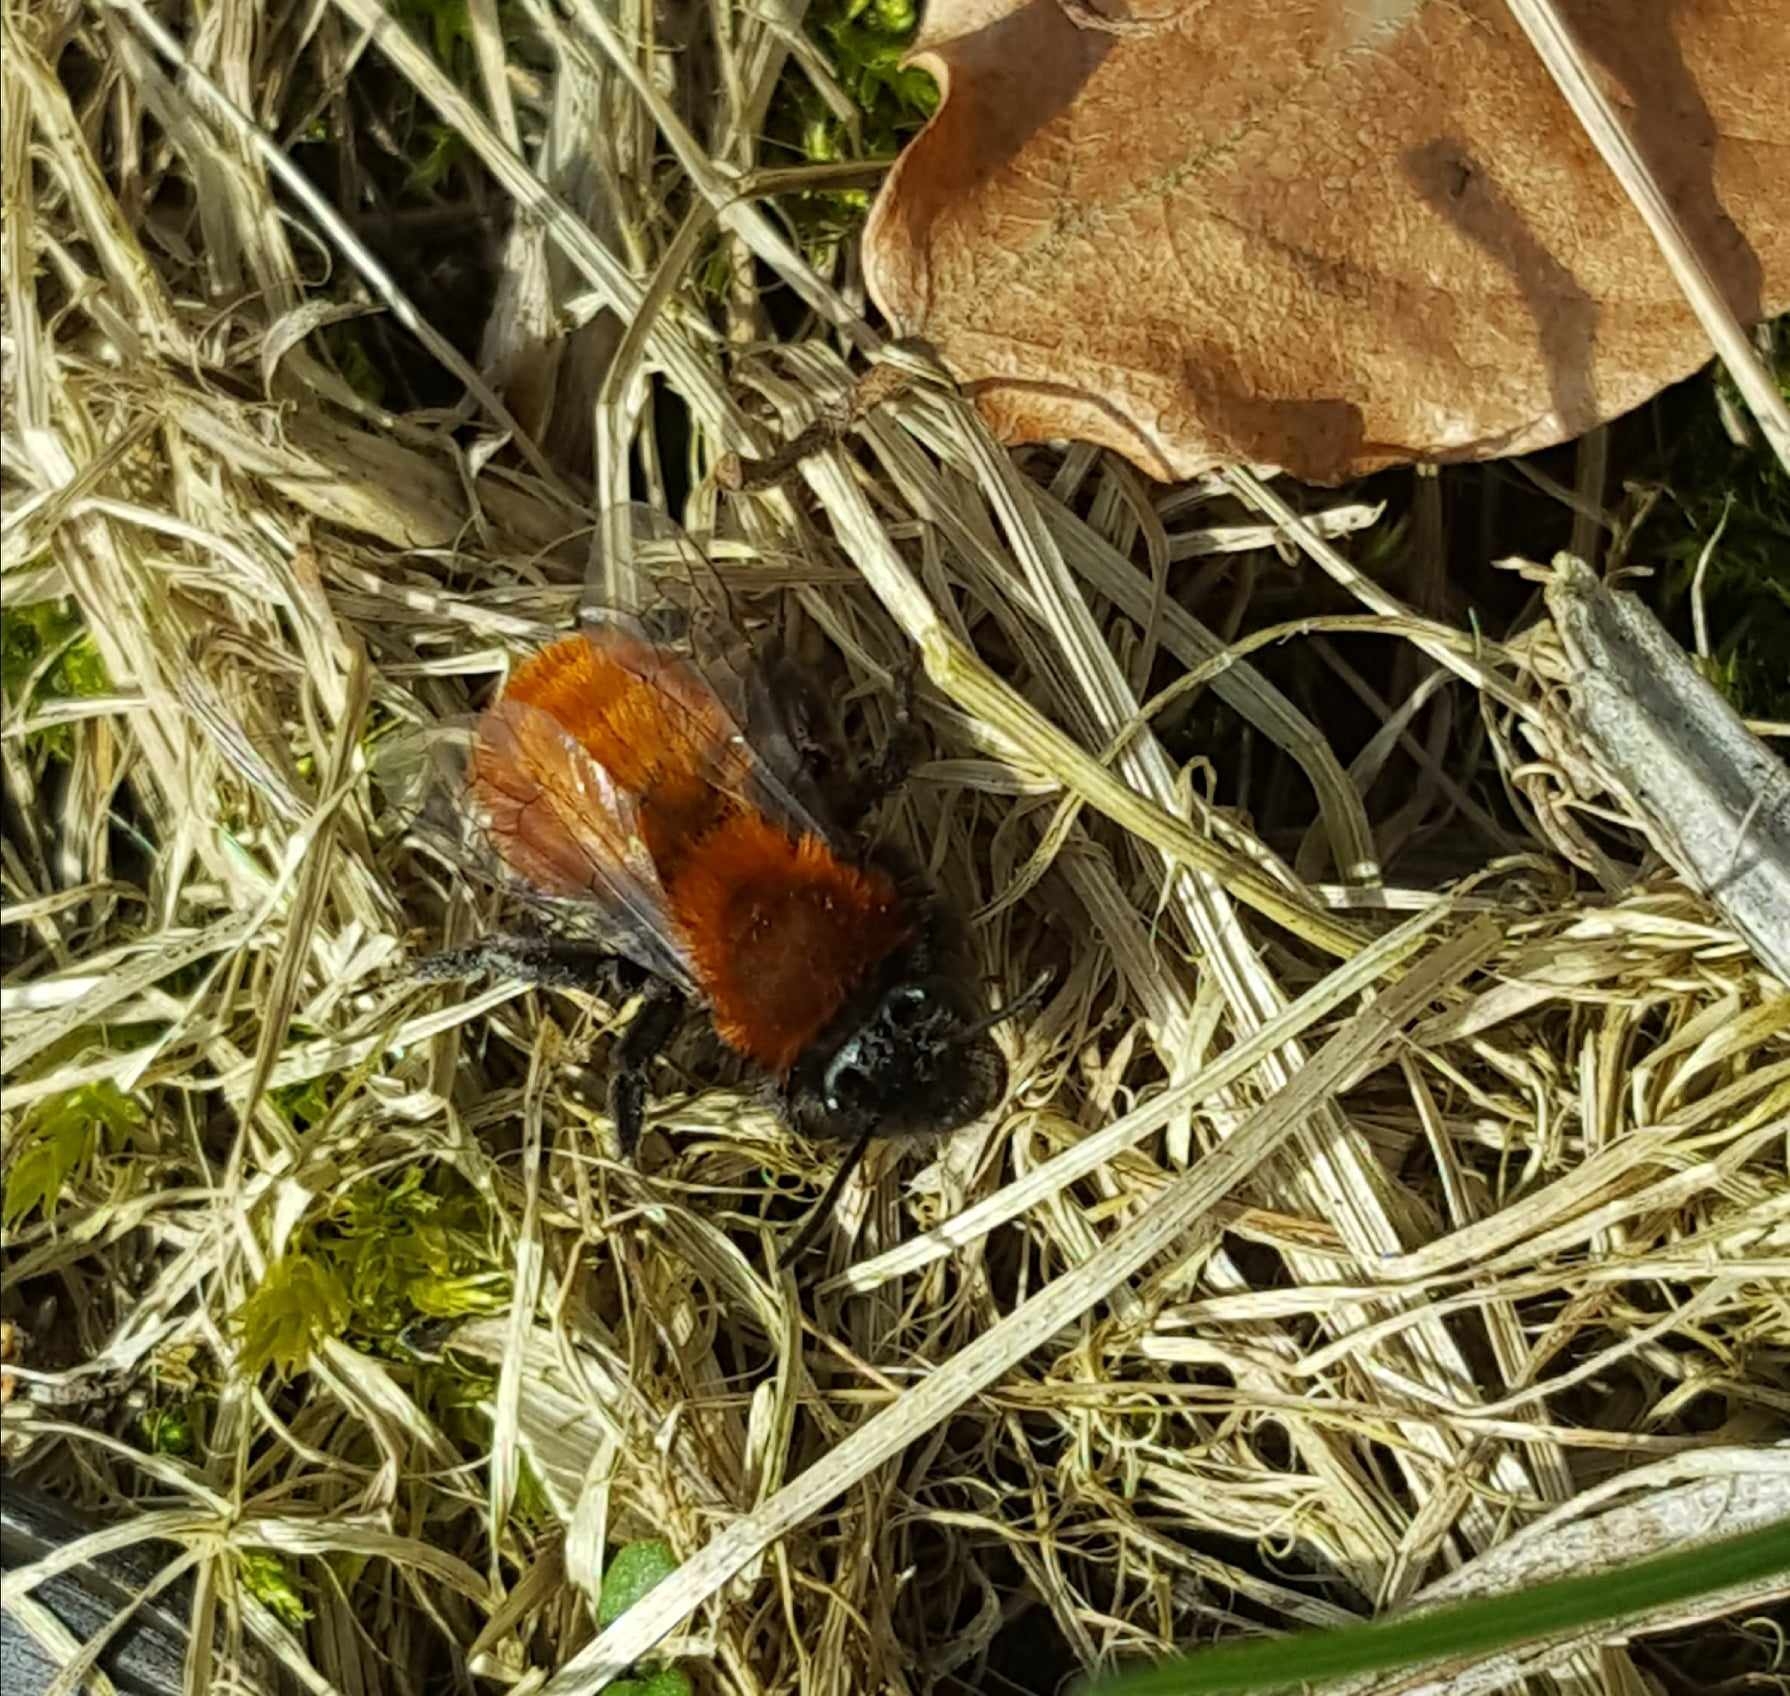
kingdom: Animalia
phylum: Arthropoda
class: Insecta
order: Hymenoptera
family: Andrenidae
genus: Andrena
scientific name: Andrena fulva
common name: Tawny mining bee
